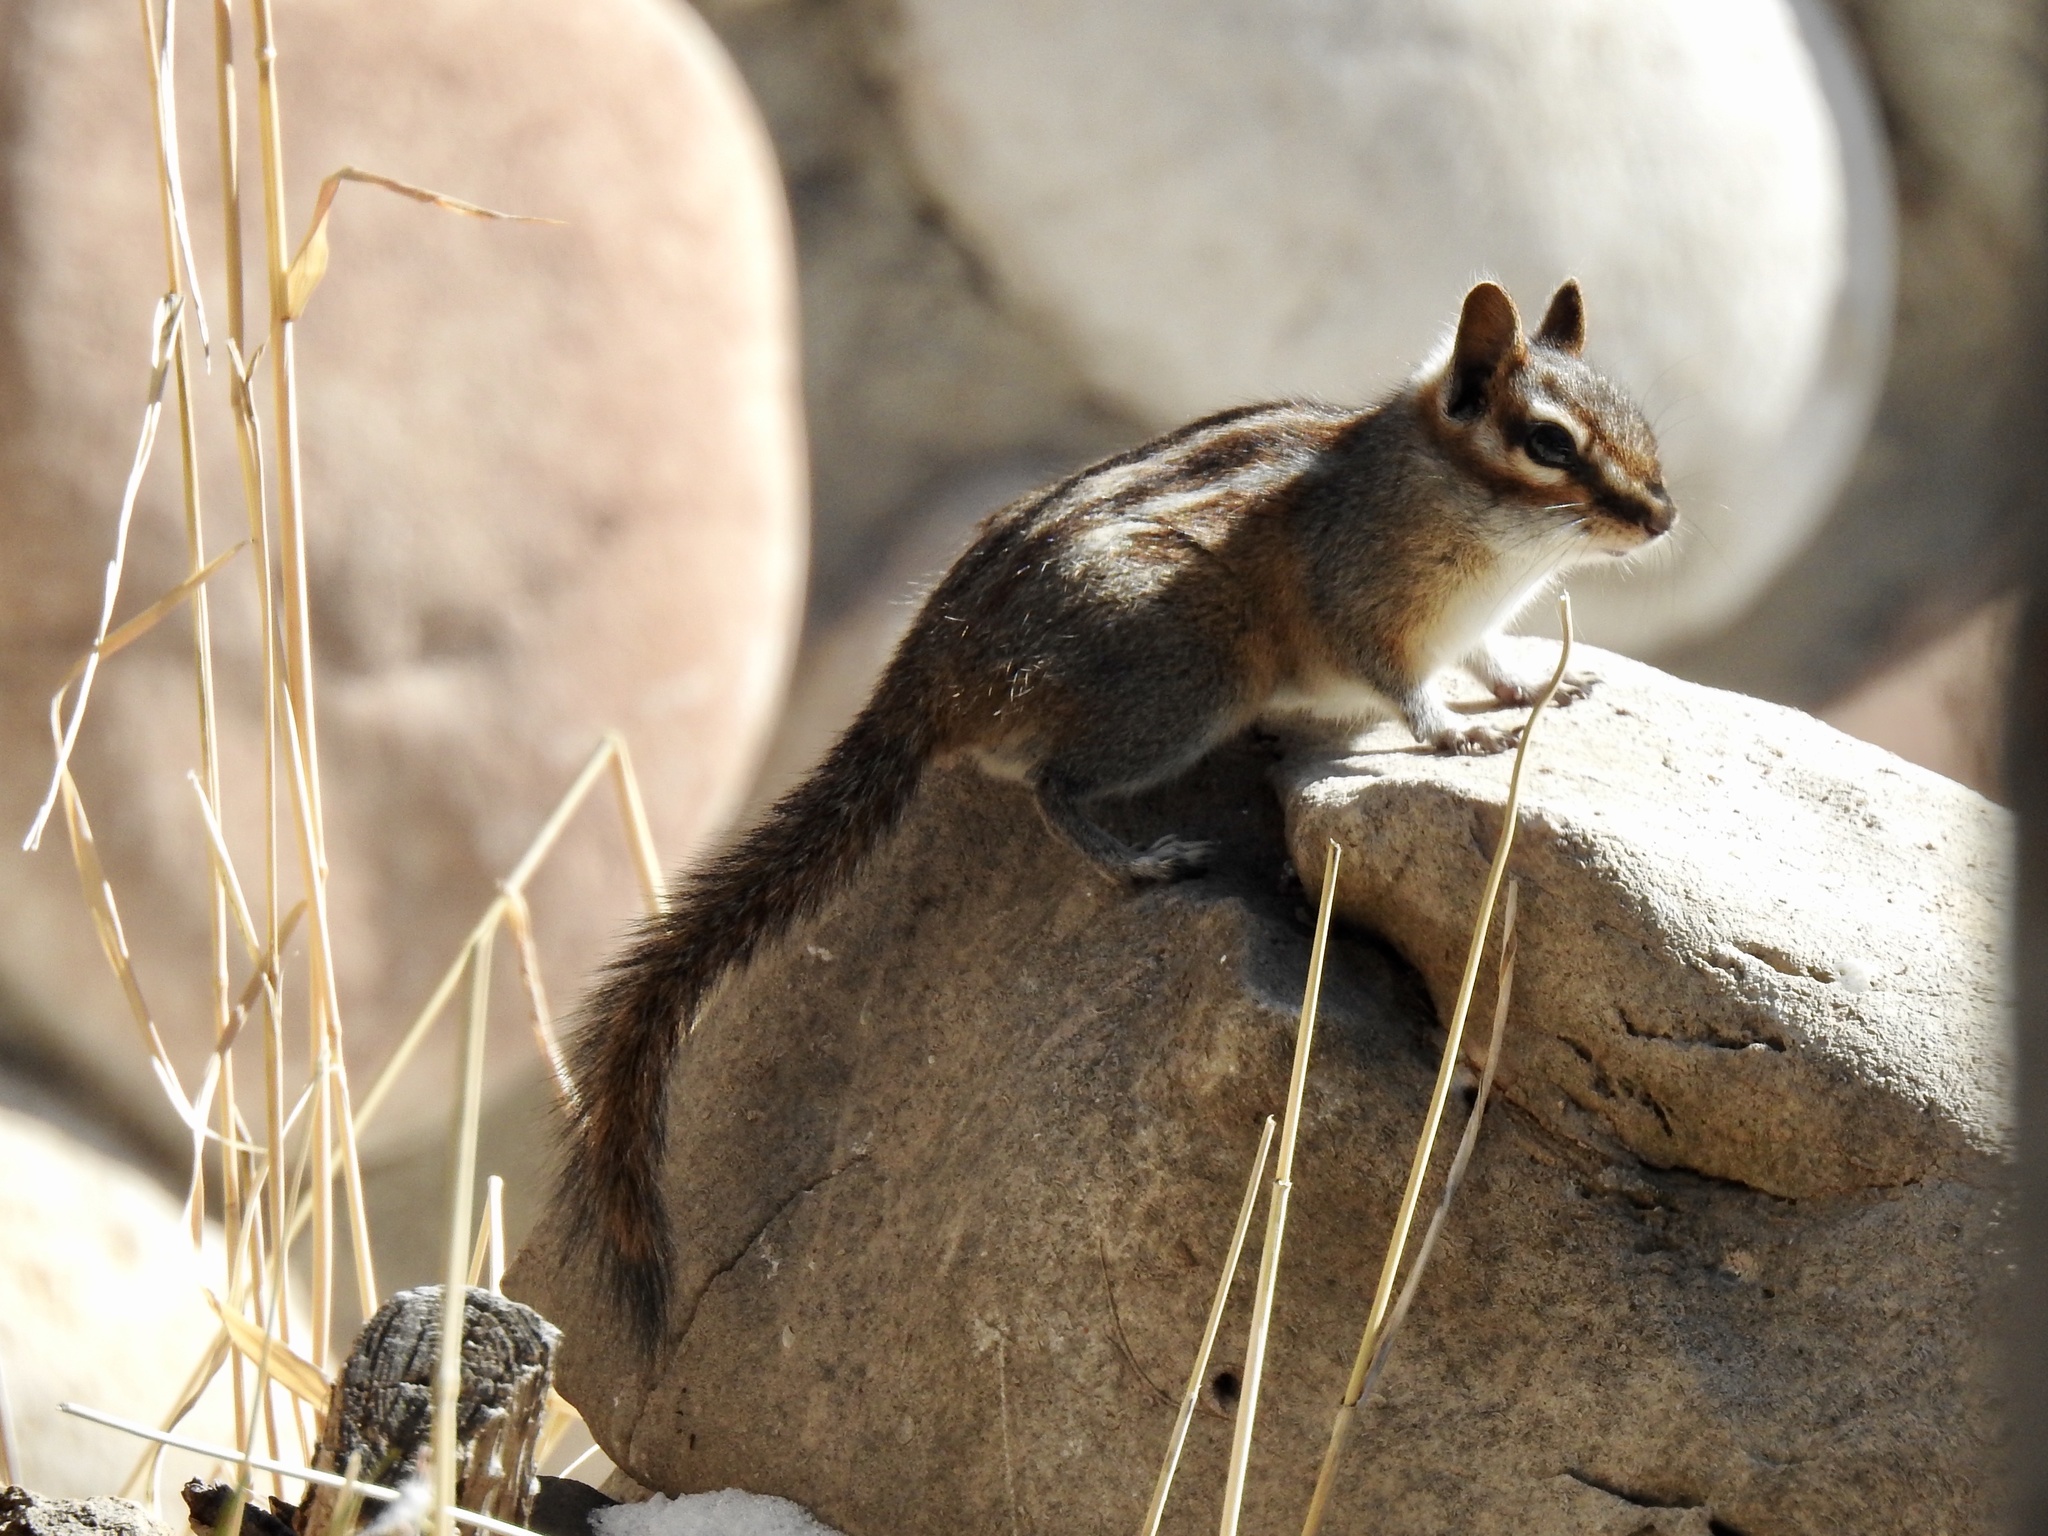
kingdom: Animalia
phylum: Chordata
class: Mammalia
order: Rodentia
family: Sciuridae
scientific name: Sciuridae
